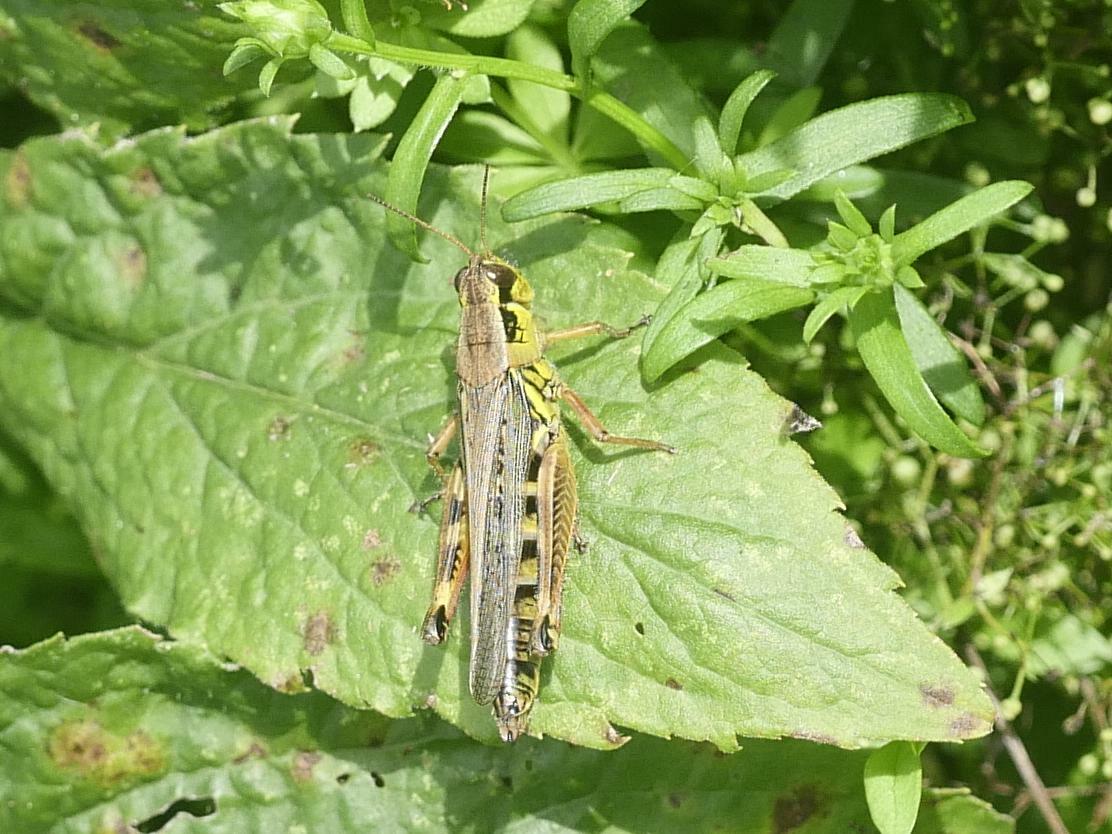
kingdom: Animalia
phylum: Arthropoda
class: Insecta
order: Orthoptera
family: Acrididae
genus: Melanoplus
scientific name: Melanoplus femurrubrum
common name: Red-legged grasshopper
